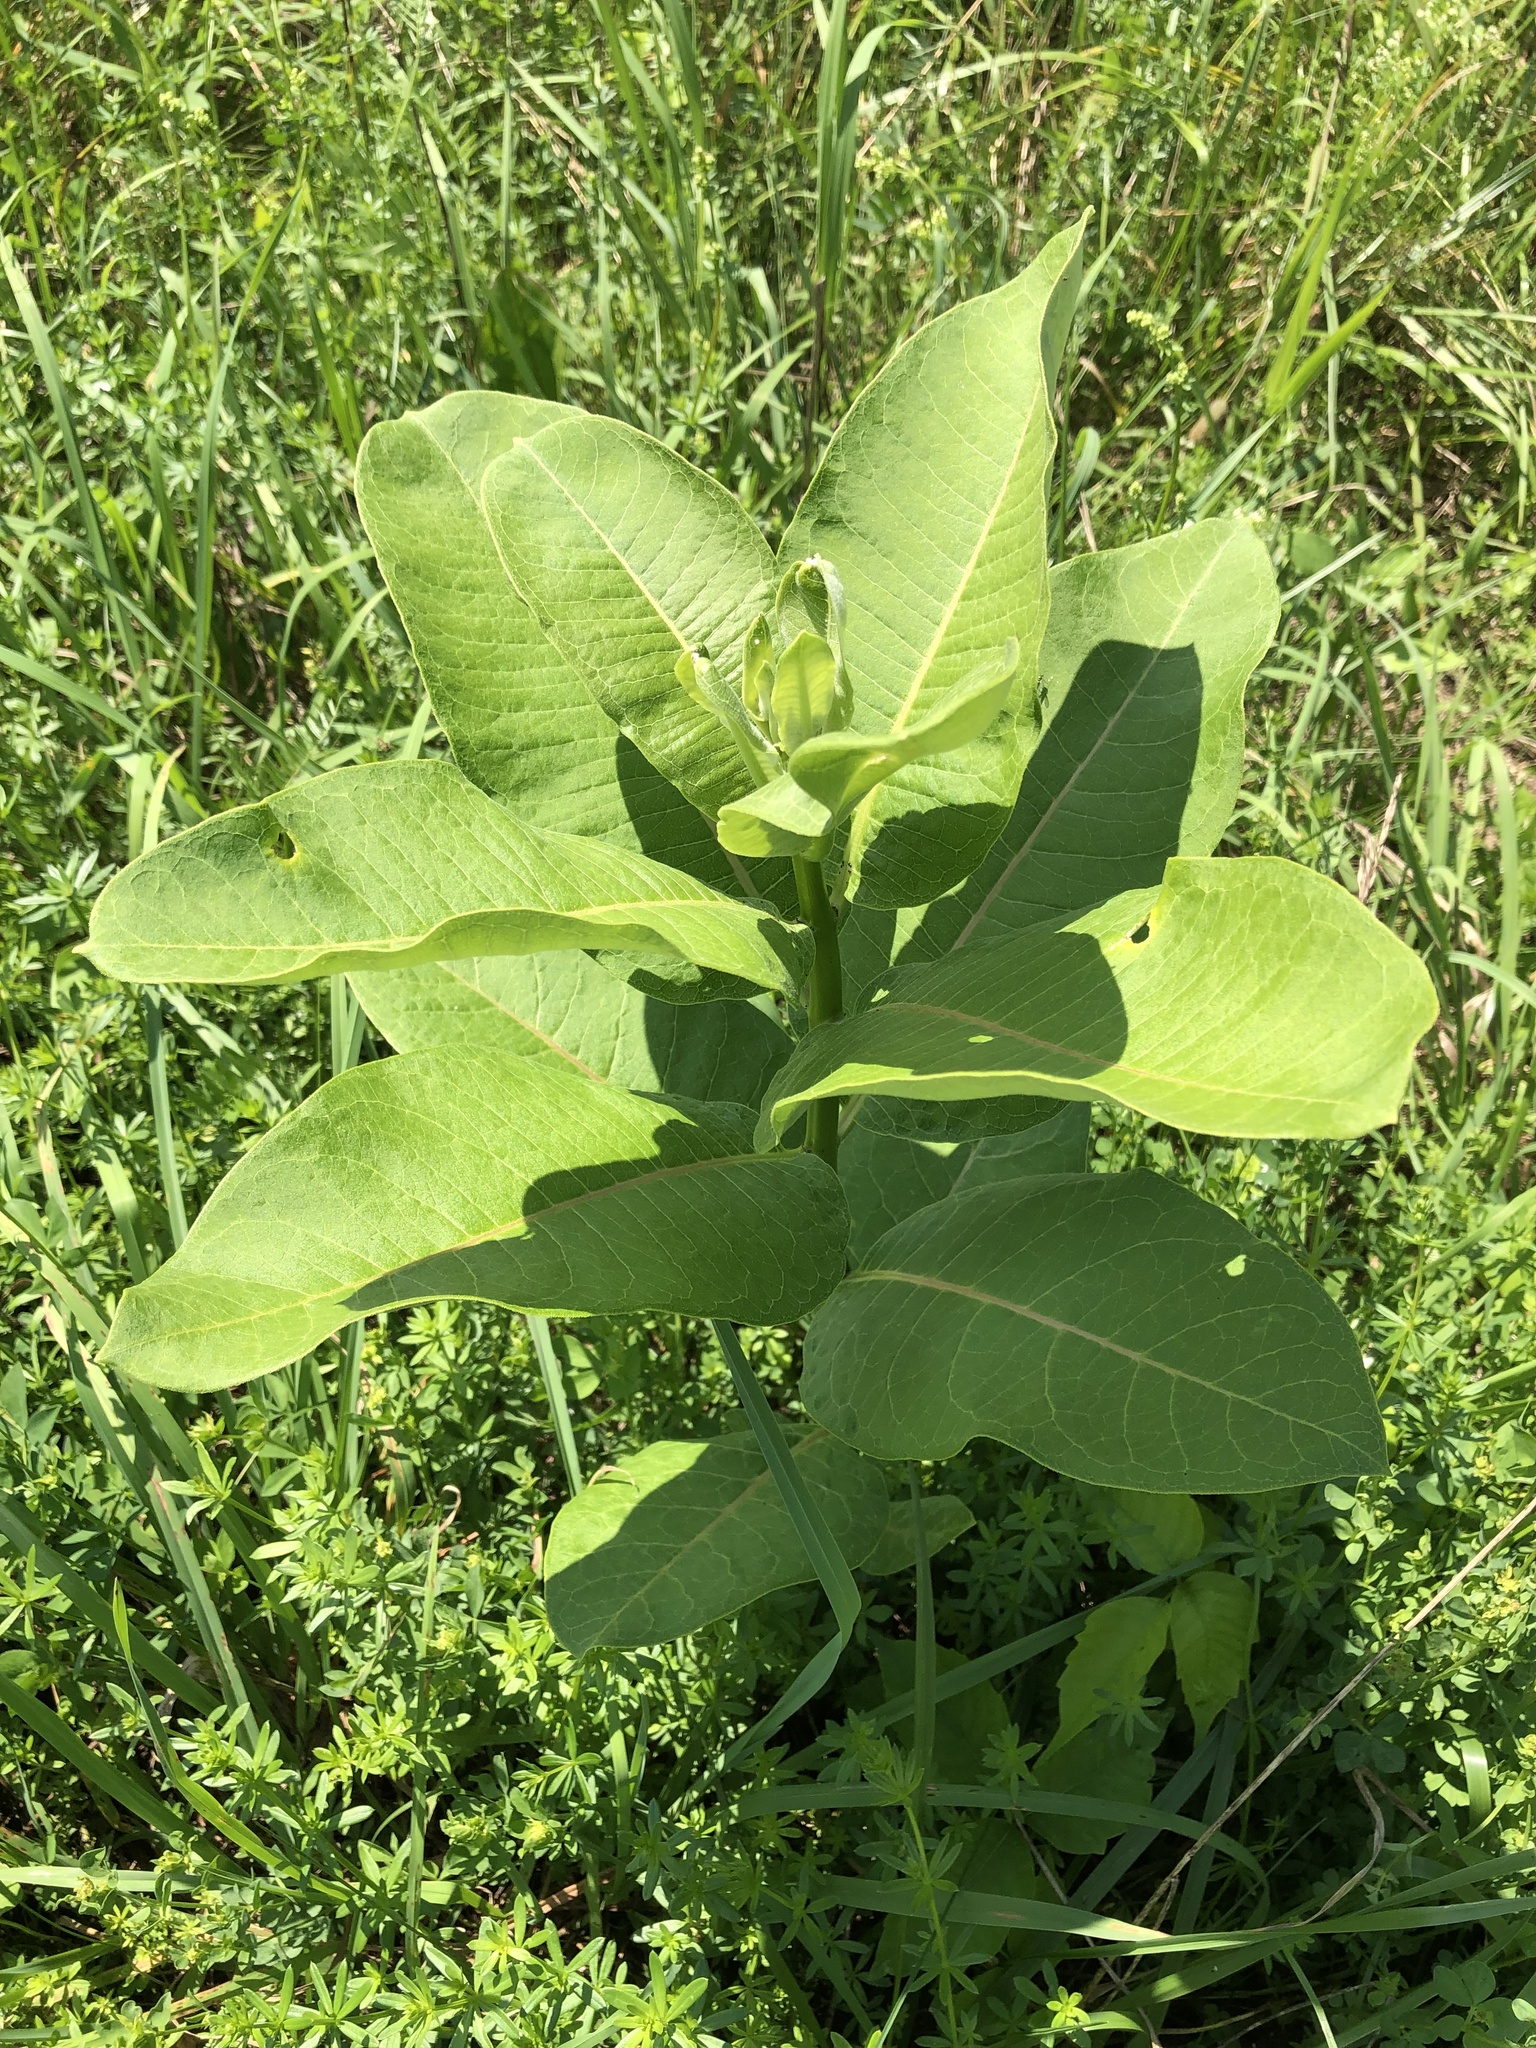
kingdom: Plantae
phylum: Tracheophyta
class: Magnoliopsida
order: Gentianales
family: Apocynaceae
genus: Asclepias
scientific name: Asclepias syriaca
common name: Common milkweed
